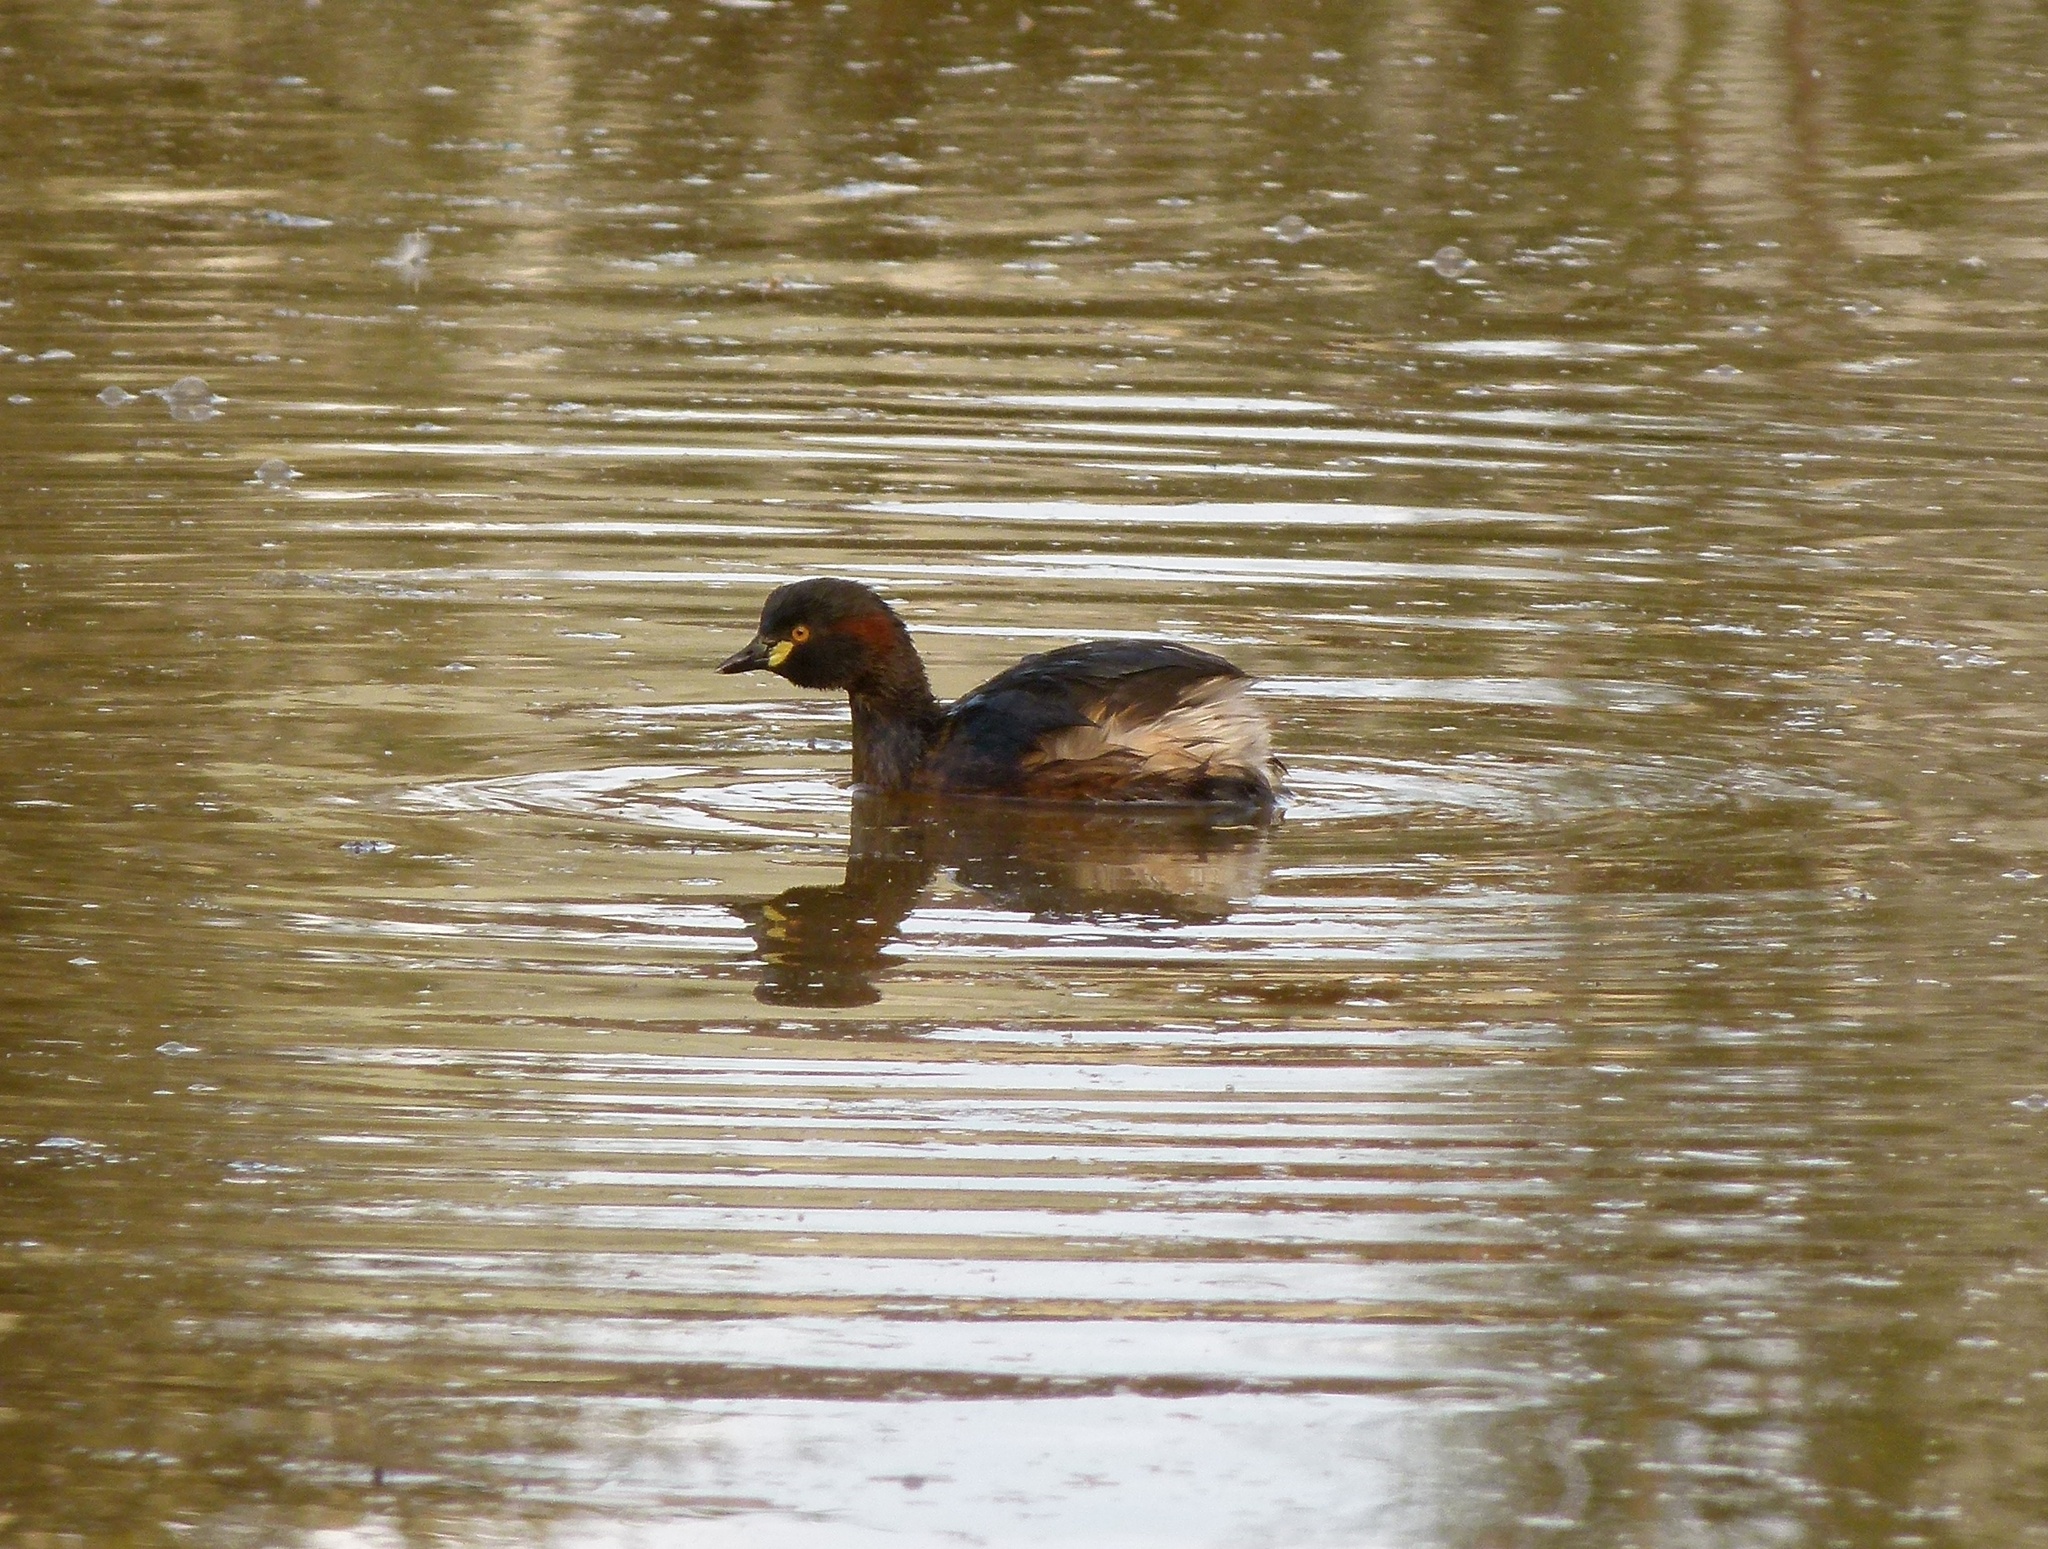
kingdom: Animalia
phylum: Chordata
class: Aves
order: Podicipediformes
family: Podicipedidae
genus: Tachybaptus
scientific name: Tachybaptus novaehollandiae
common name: Australasian grebe
